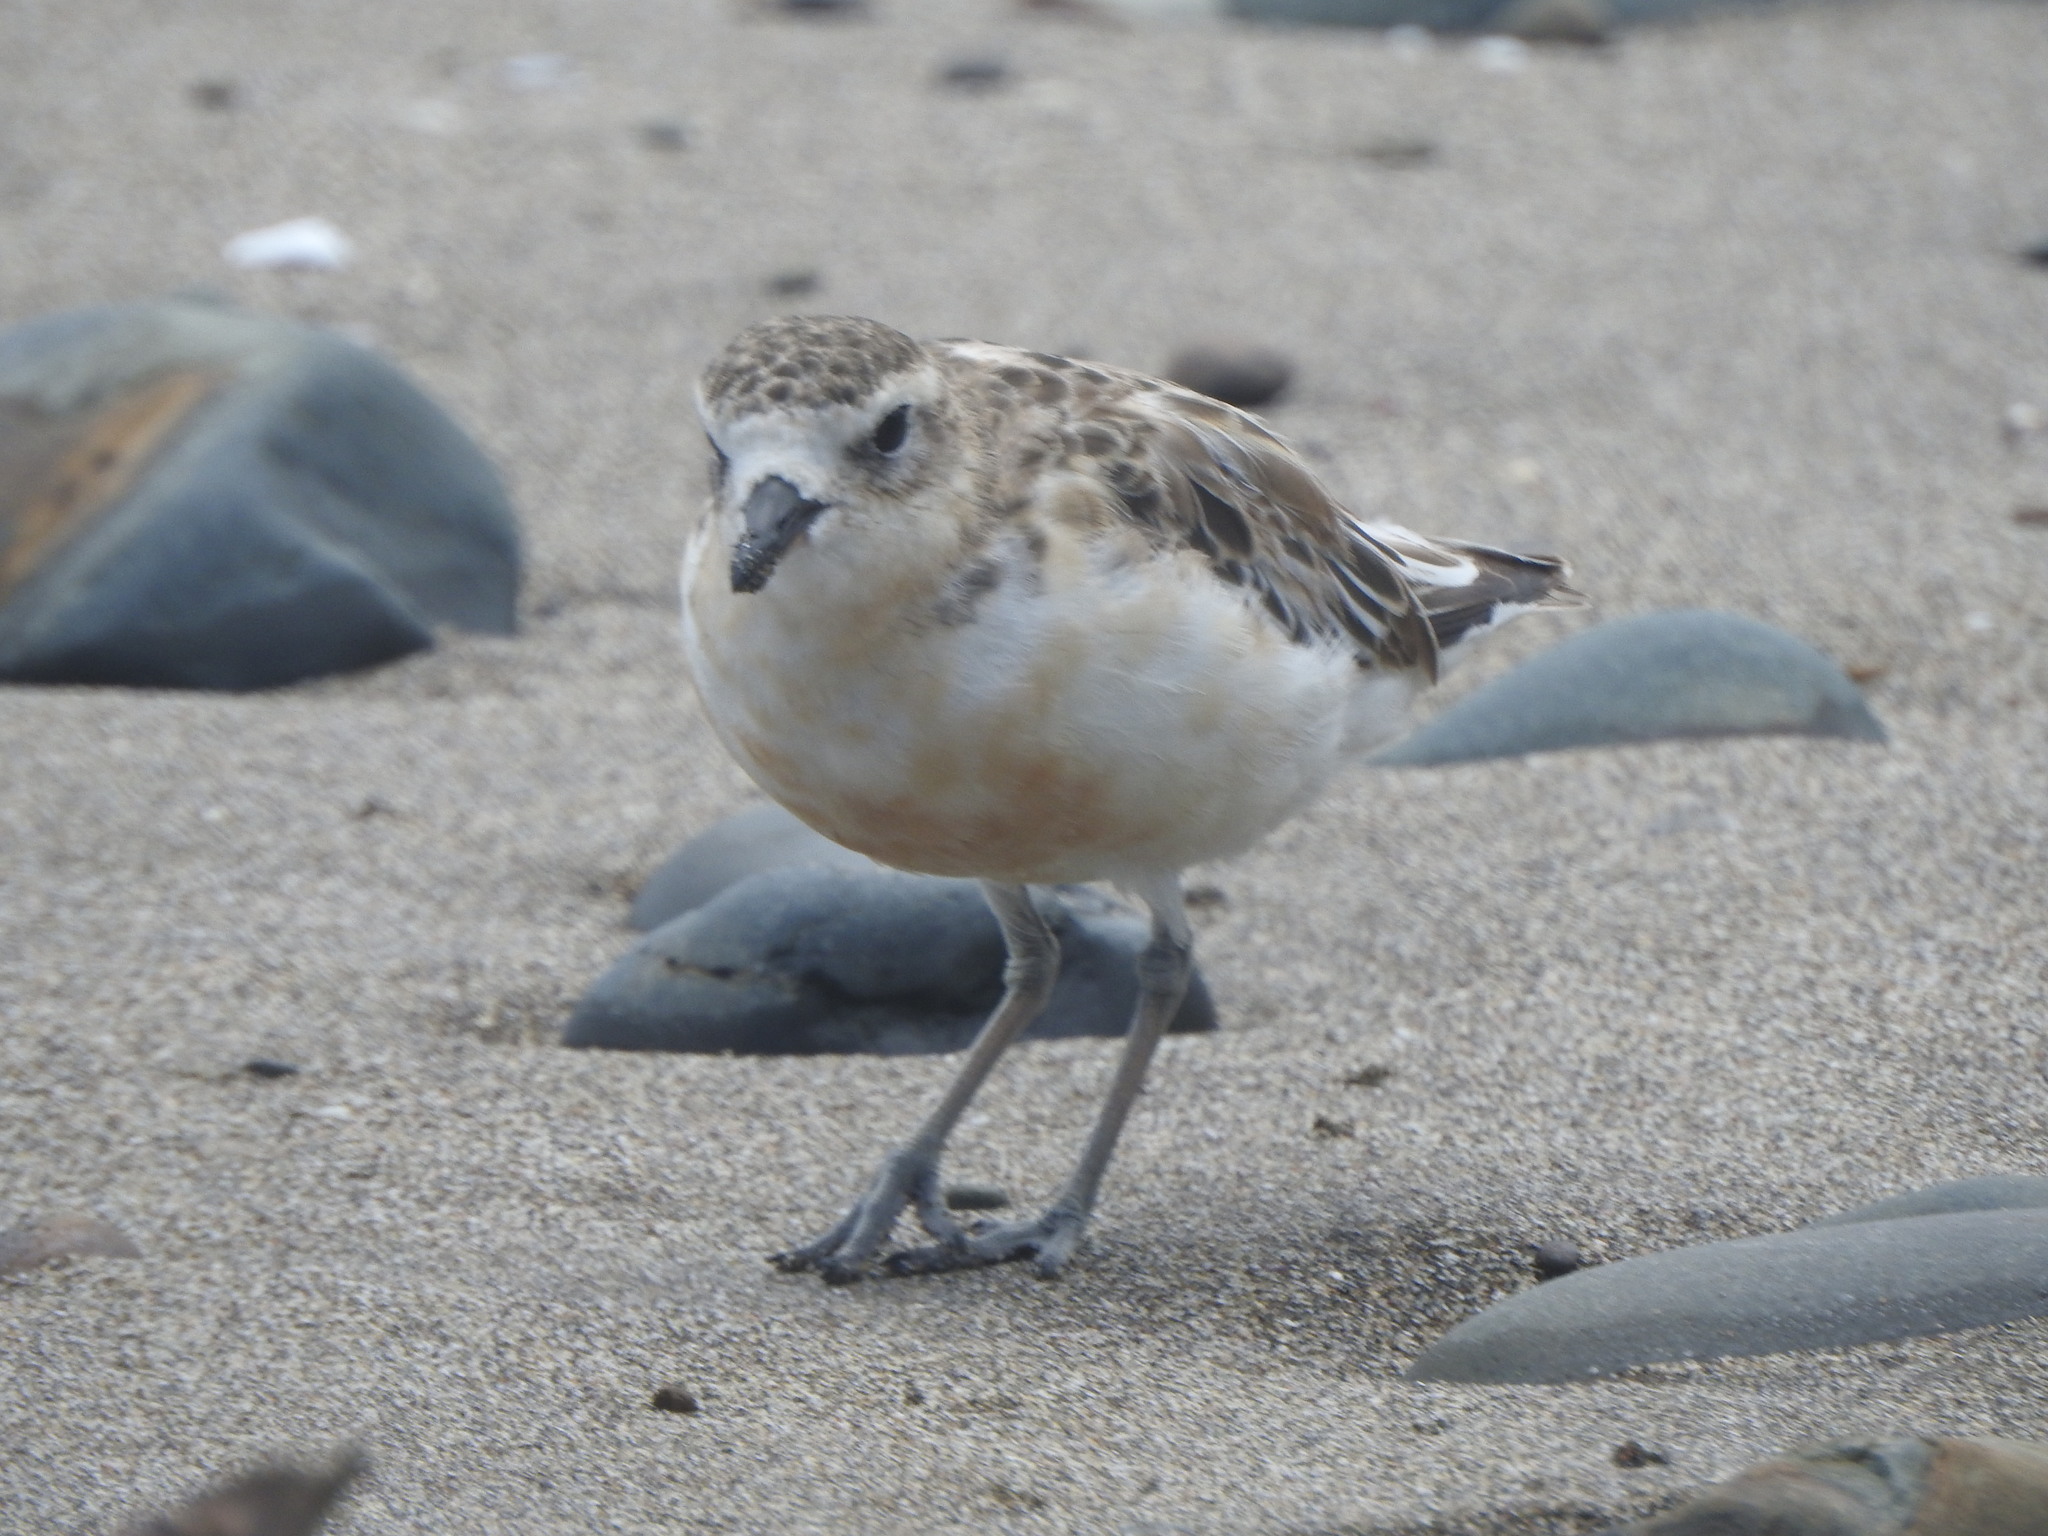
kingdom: Animalia
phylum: Chordata
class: Aves
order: Charadriiformes
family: Charadriidae
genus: Anarhynchus
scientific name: Anarhynchus
